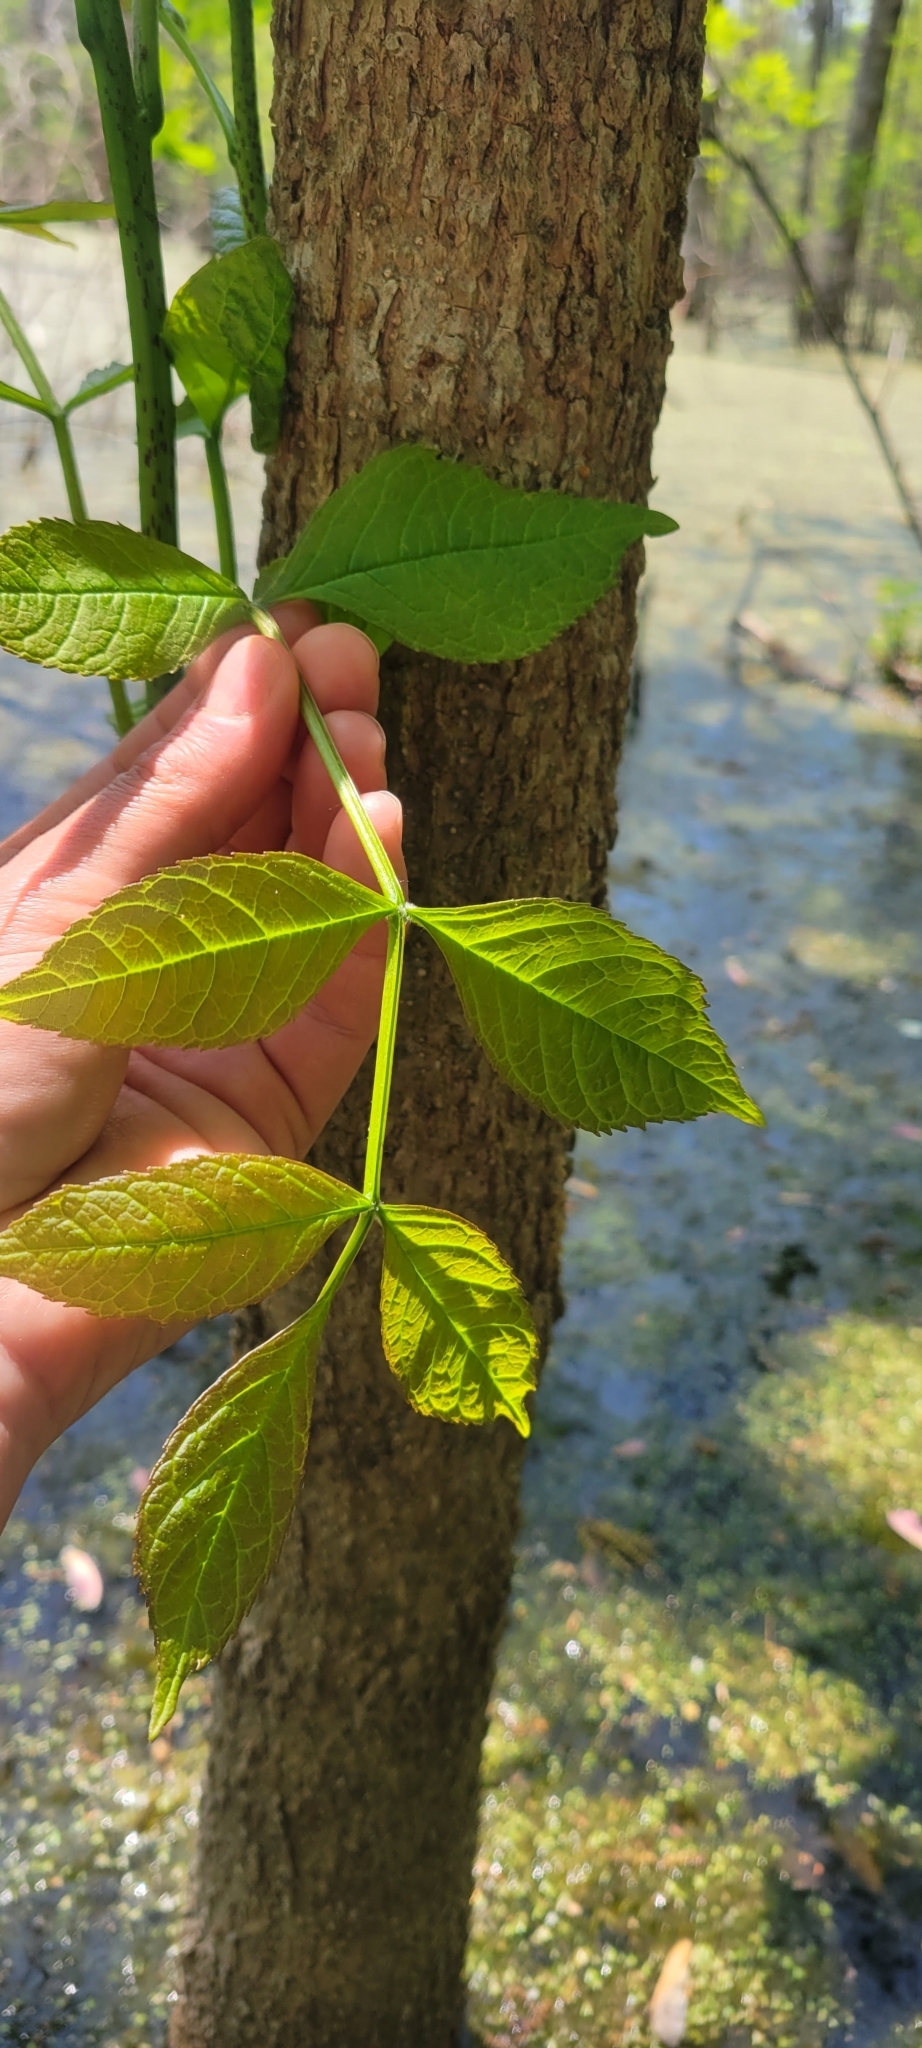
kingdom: Plantae
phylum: Tracheophyta
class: Magnoliopsida
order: Lamiales
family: Oleaceae
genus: Fraxinus
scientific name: Fraxinus nigra
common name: Black ash
